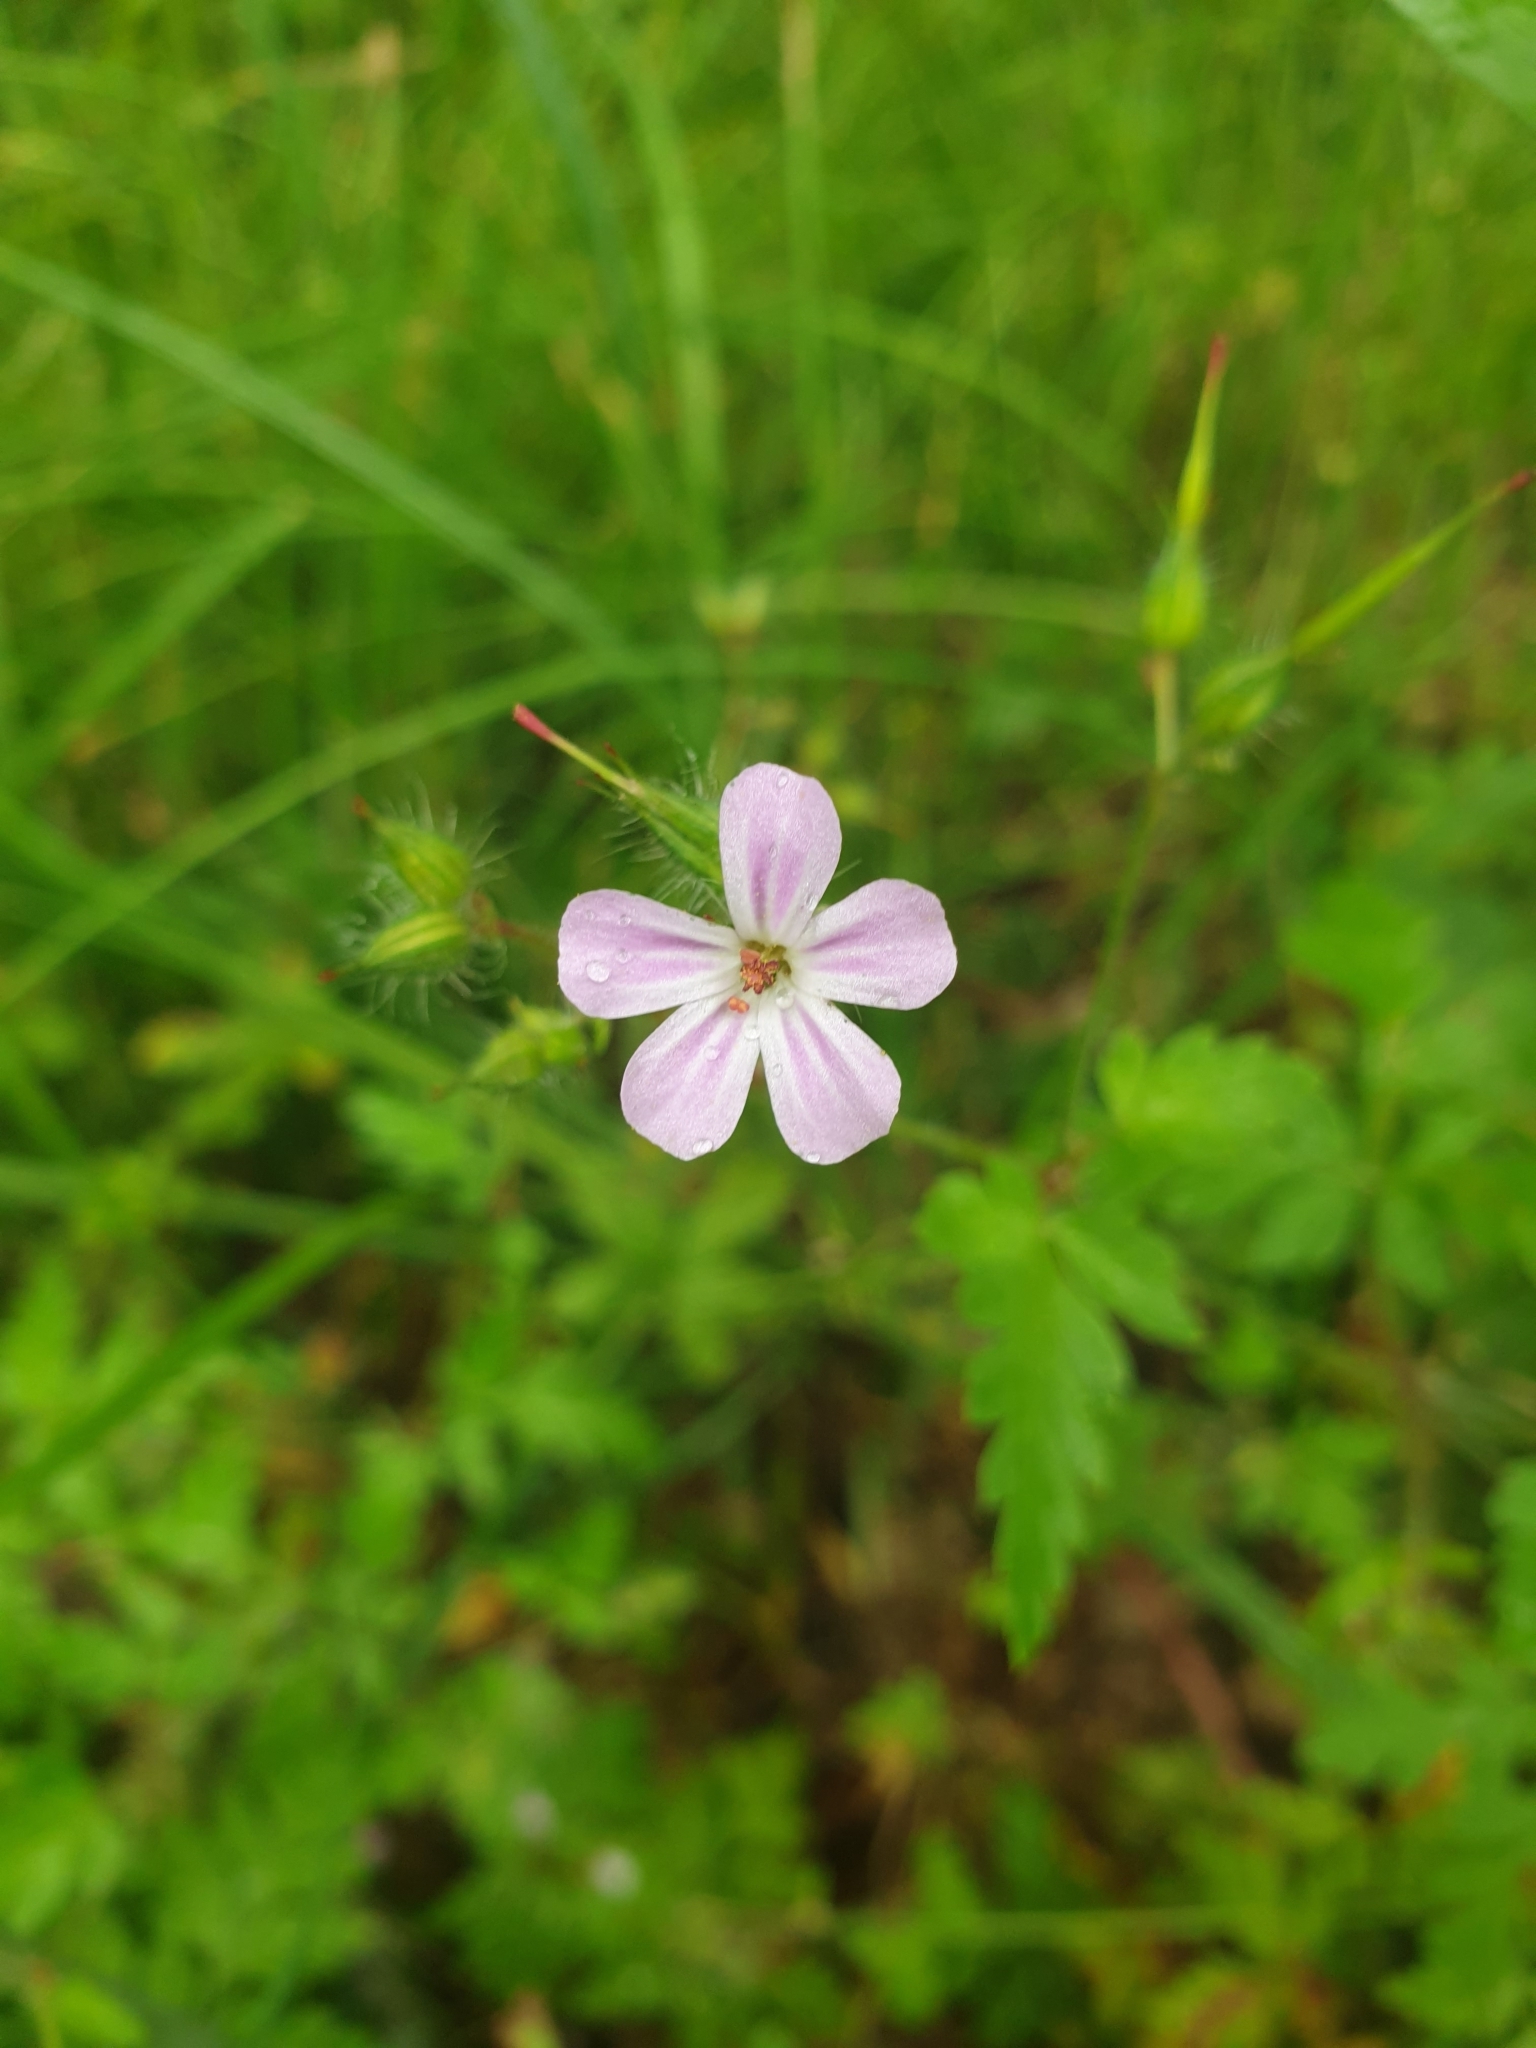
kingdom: Plantae
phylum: Tracheophyta
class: Magnoliopsida
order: Geraniales
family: Geraniaceae
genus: Geranium
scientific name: Geranium robertianum
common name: Herb-robert
